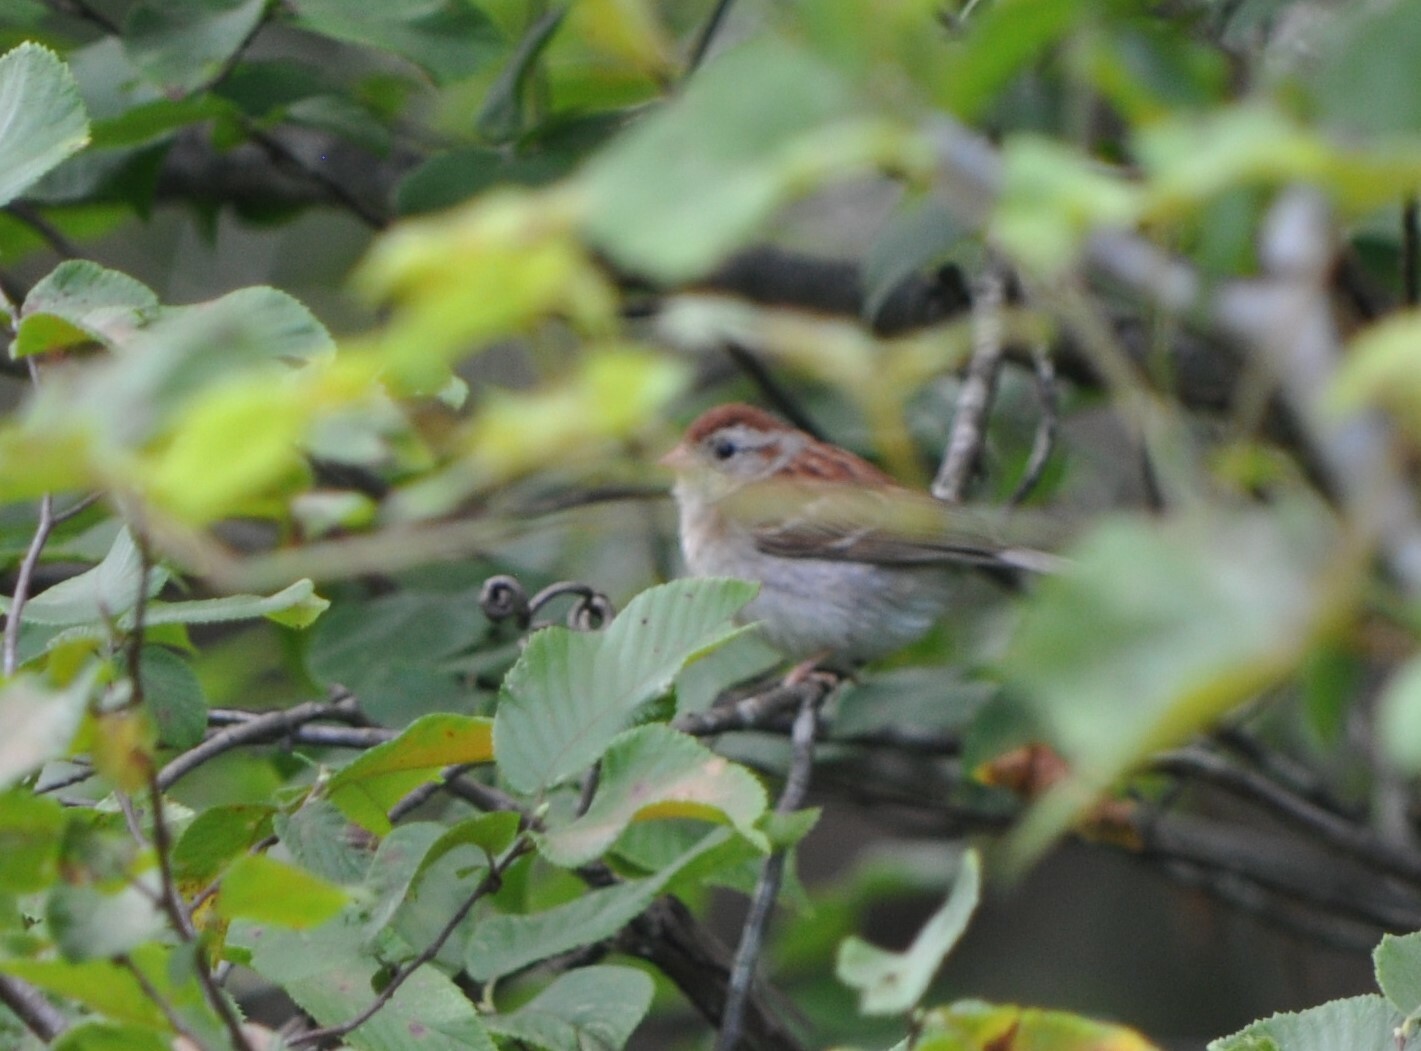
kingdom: Animalia
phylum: Chordata
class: Aves
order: Passeriformes
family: Passerellidae
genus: Spizella
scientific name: Spizella pusilla
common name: Field sparrow
